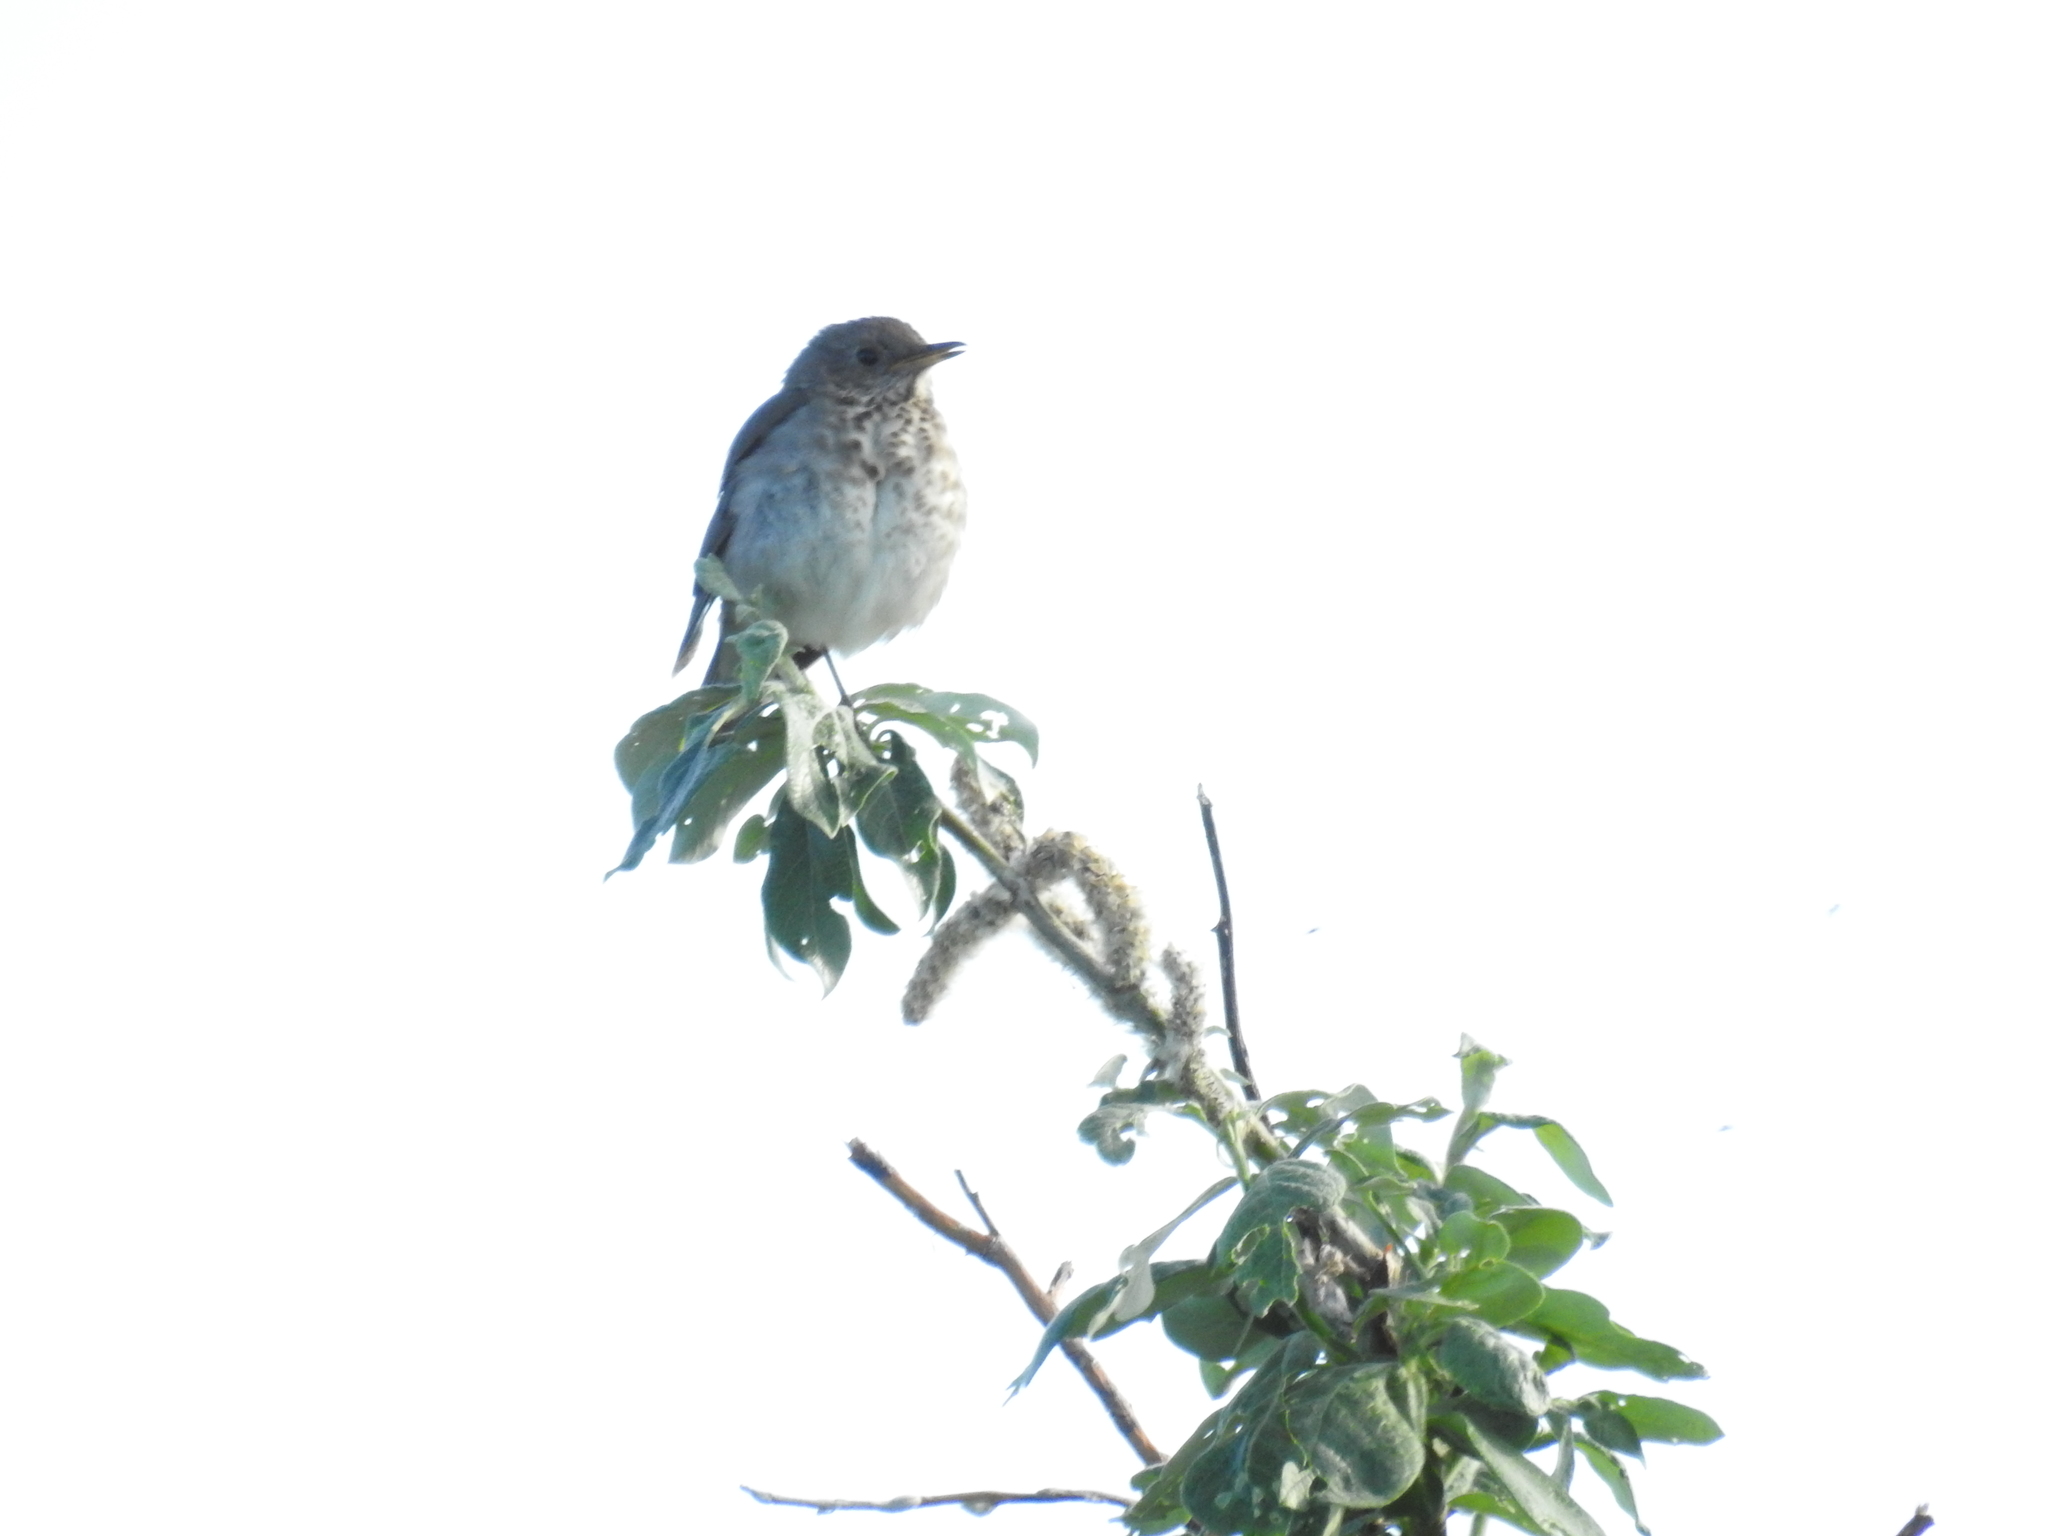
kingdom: Animalia
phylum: Chordata
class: Aves
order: Passeriformes
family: Turdidae
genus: Catharus
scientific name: Catharus minimus
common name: Grey-cheeked thrush
